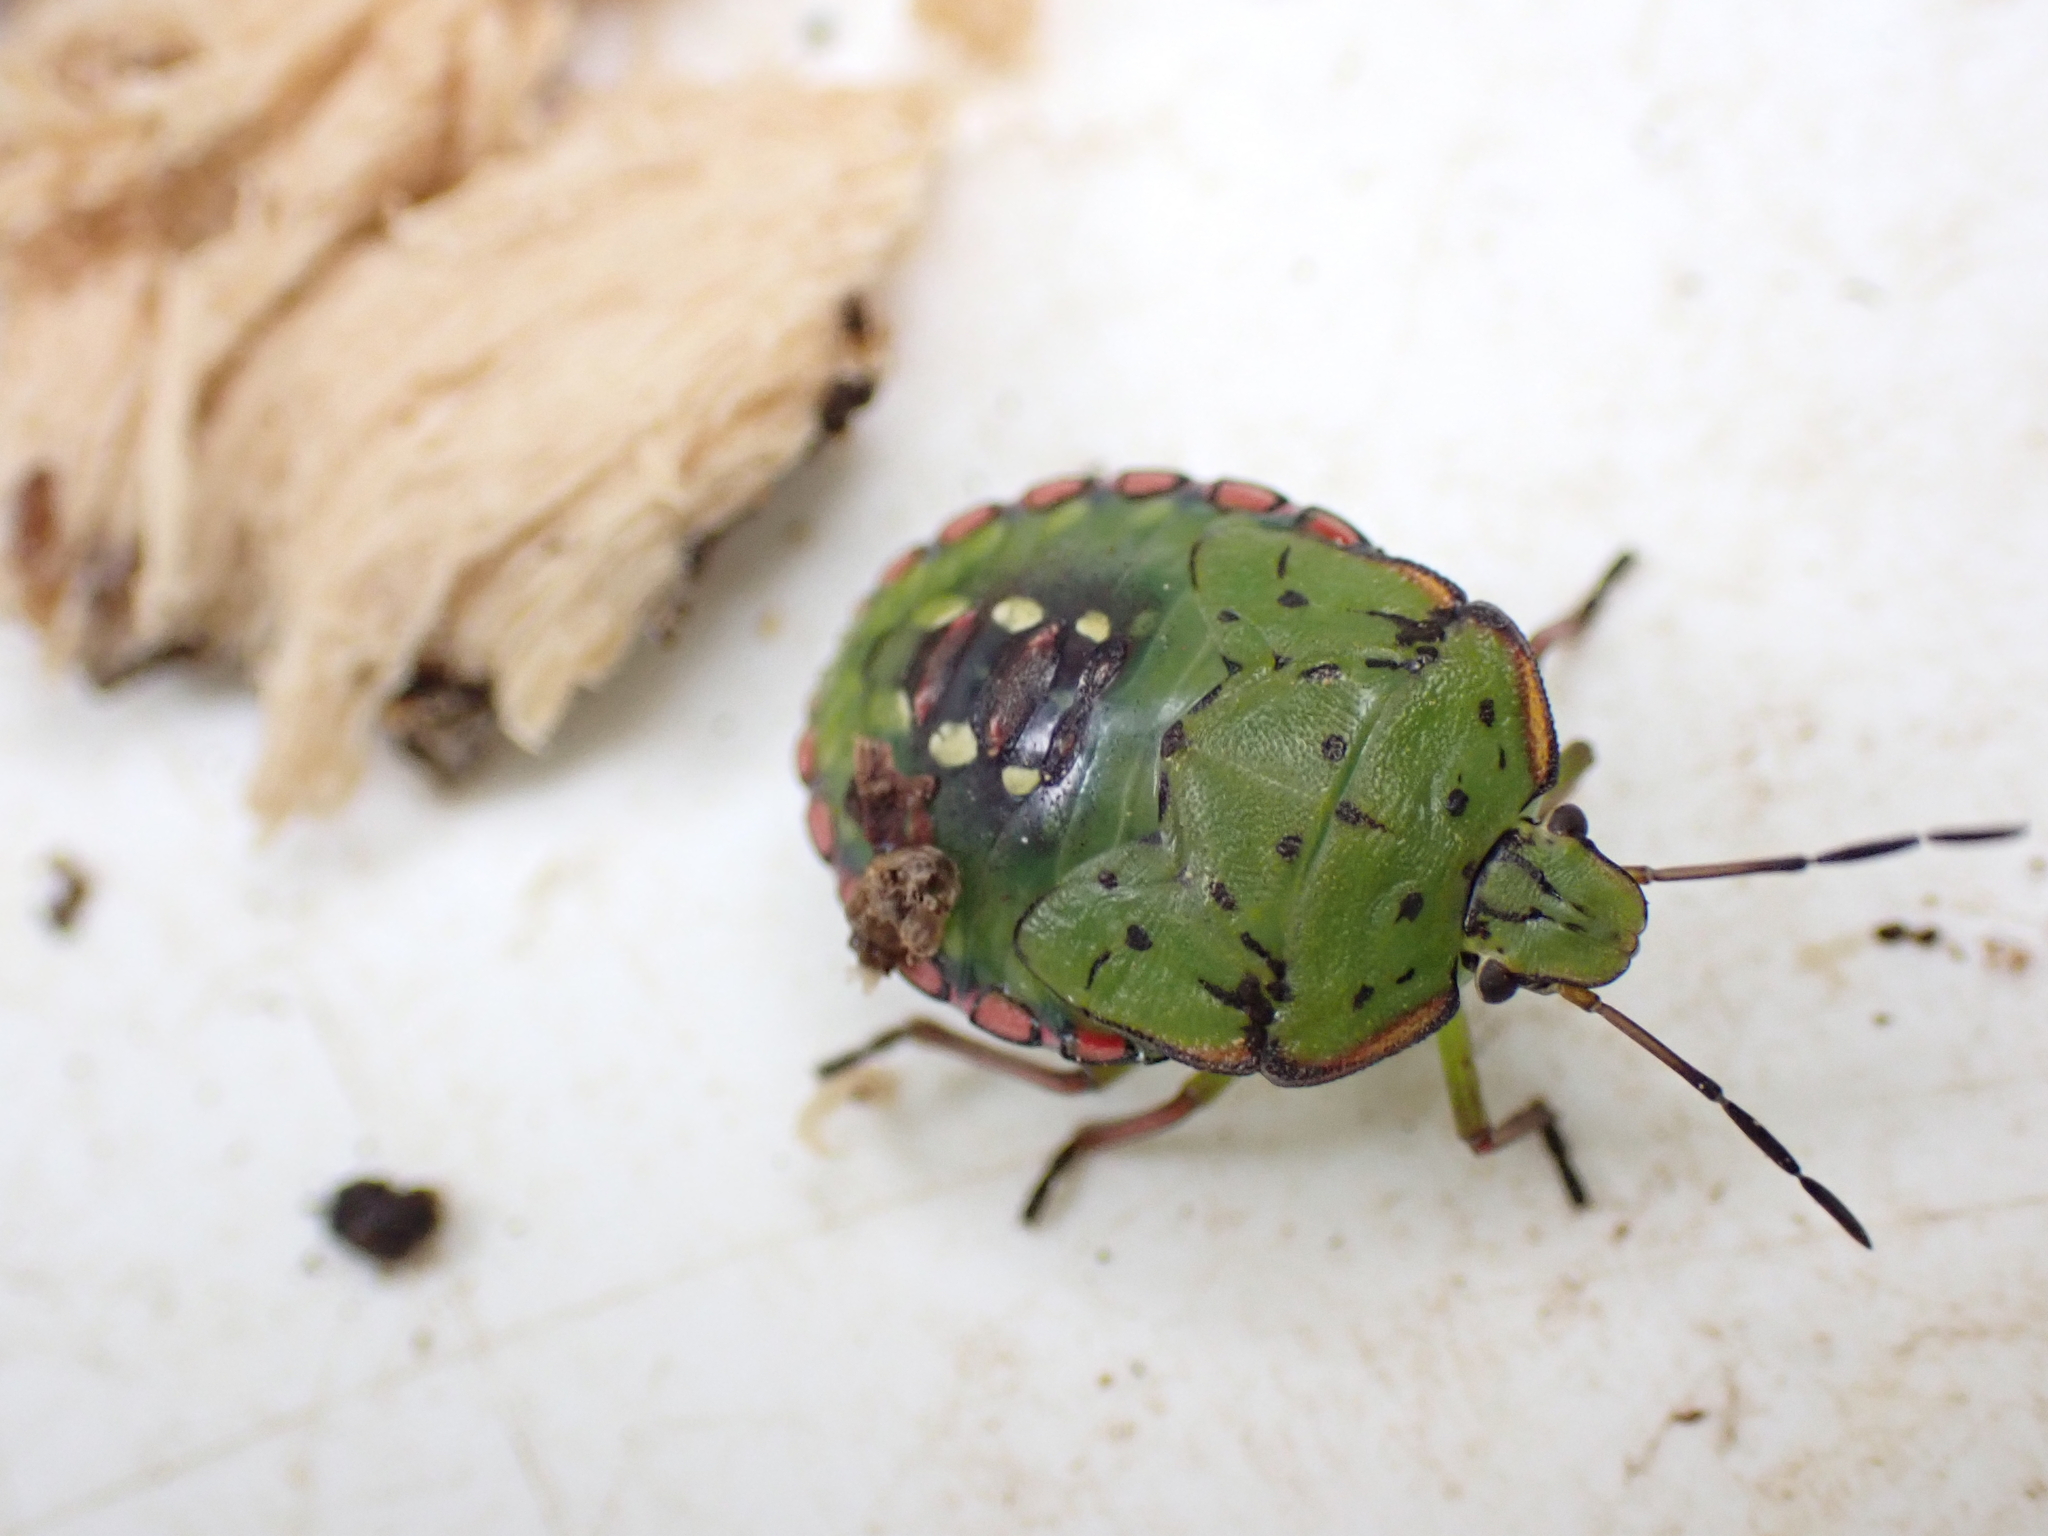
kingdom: Animalia
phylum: Arthropoda
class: Insecta
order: Hemiptera
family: Pentatomidae
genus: Nezara
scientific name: Nezara viridula
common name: Southern green stink bug
